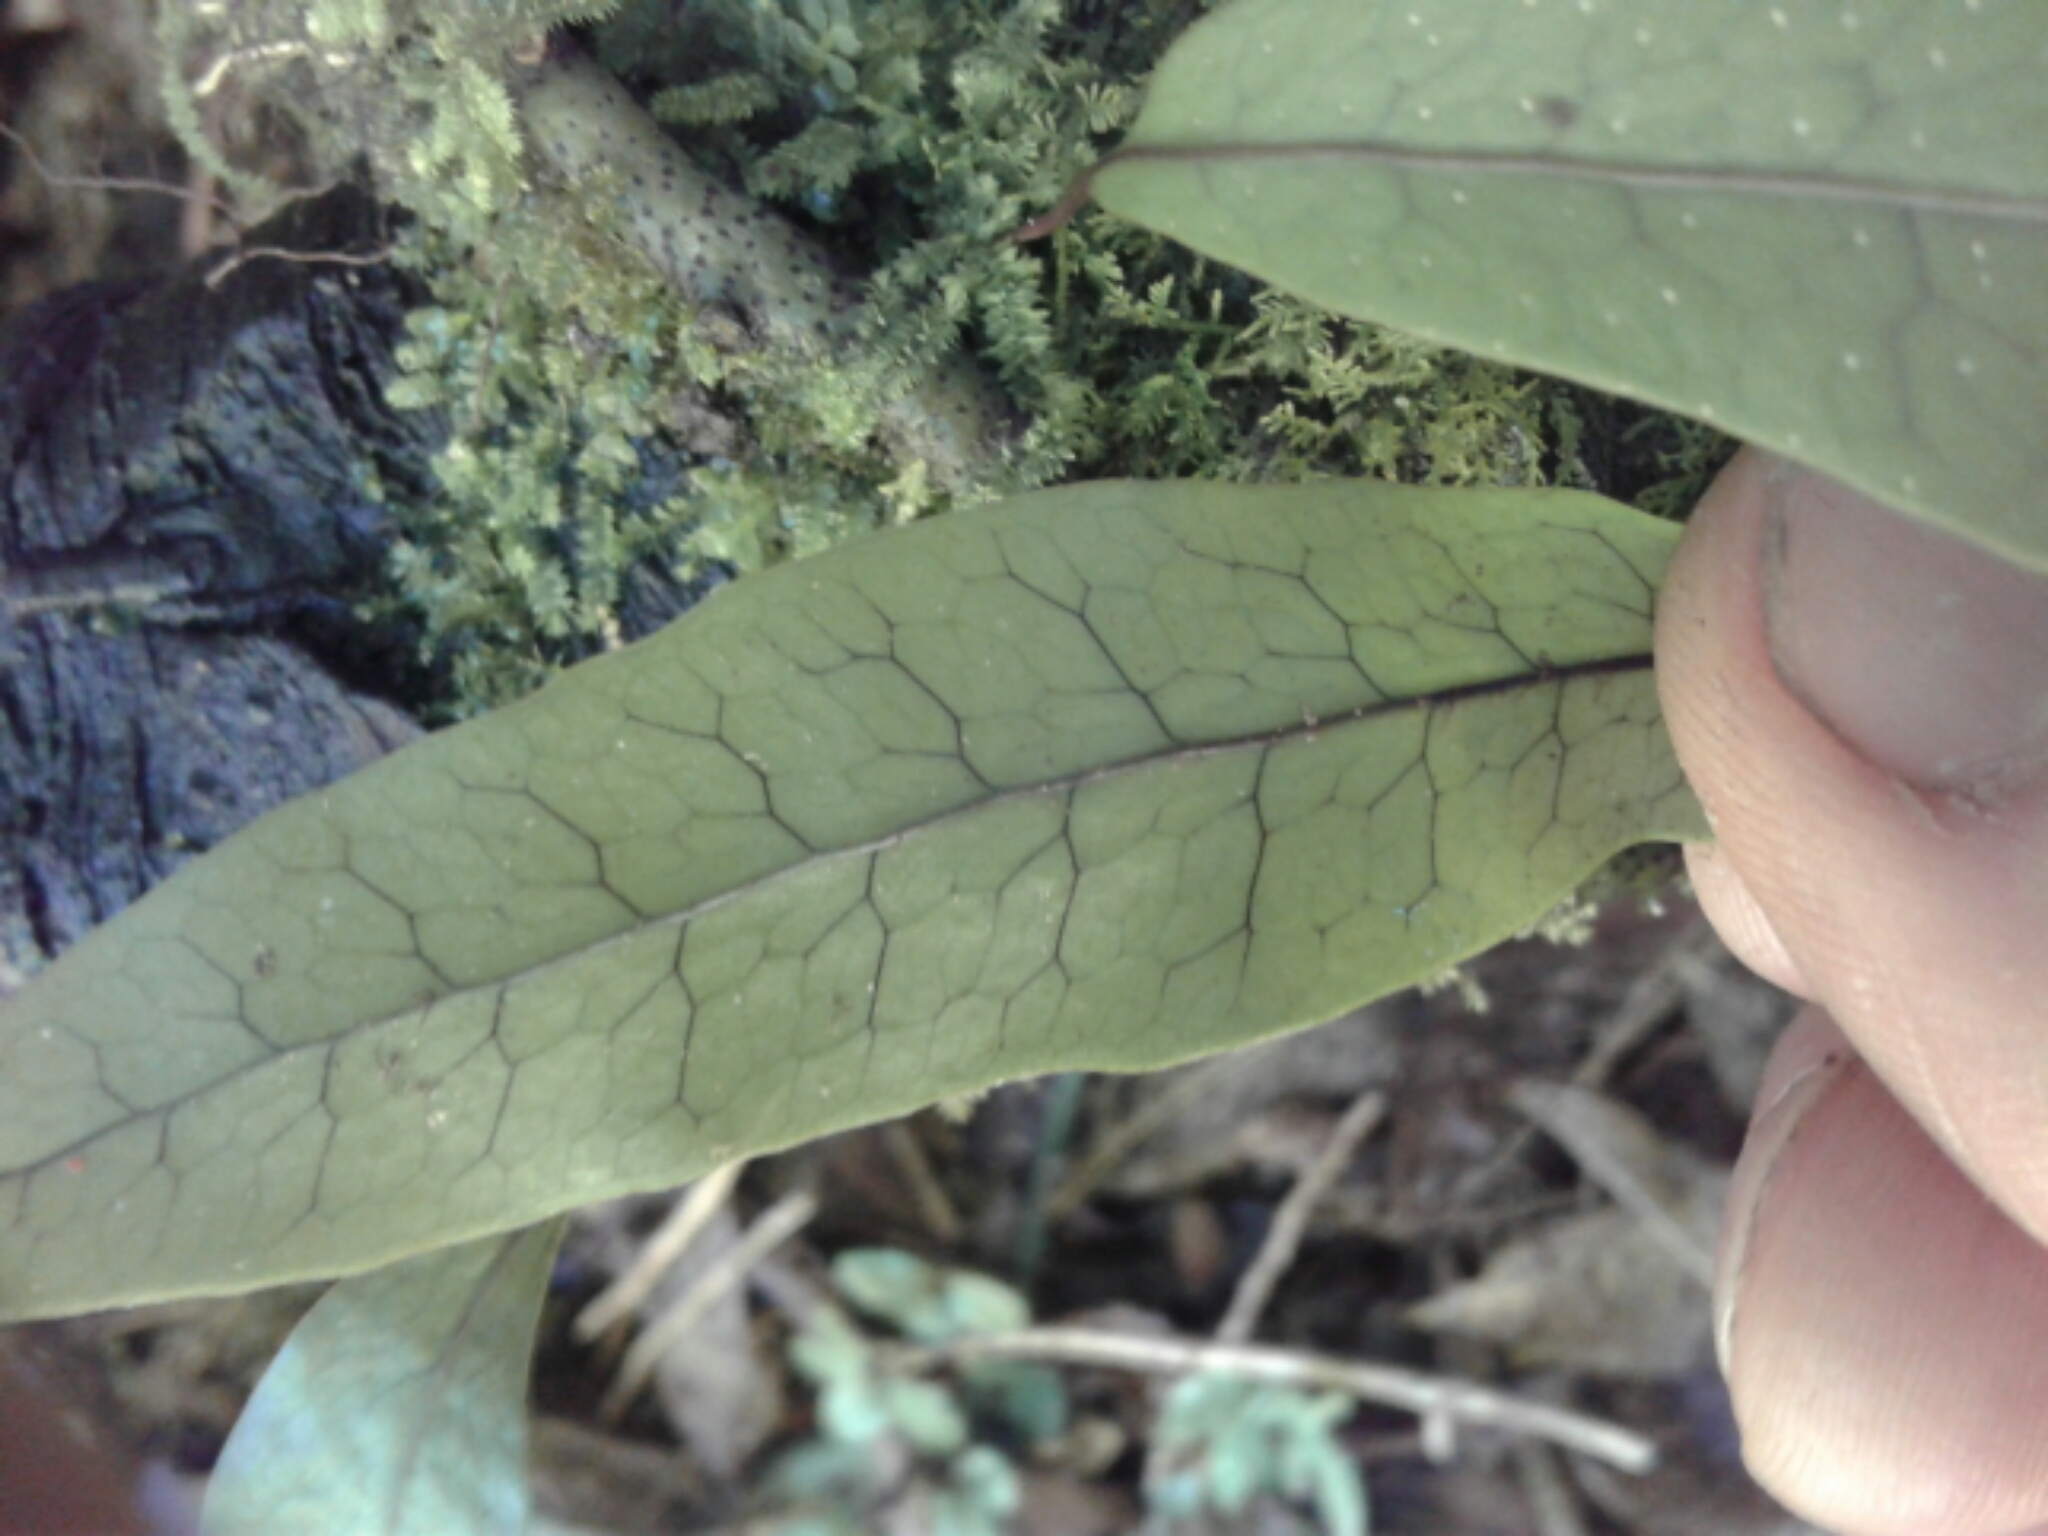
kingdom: Plantae
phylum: Tracheophyta
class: Polypodiopsida
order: Polypodiales
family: Polypodiaceae
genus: Lecanopteris
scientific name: Lecanopteris pustulata
